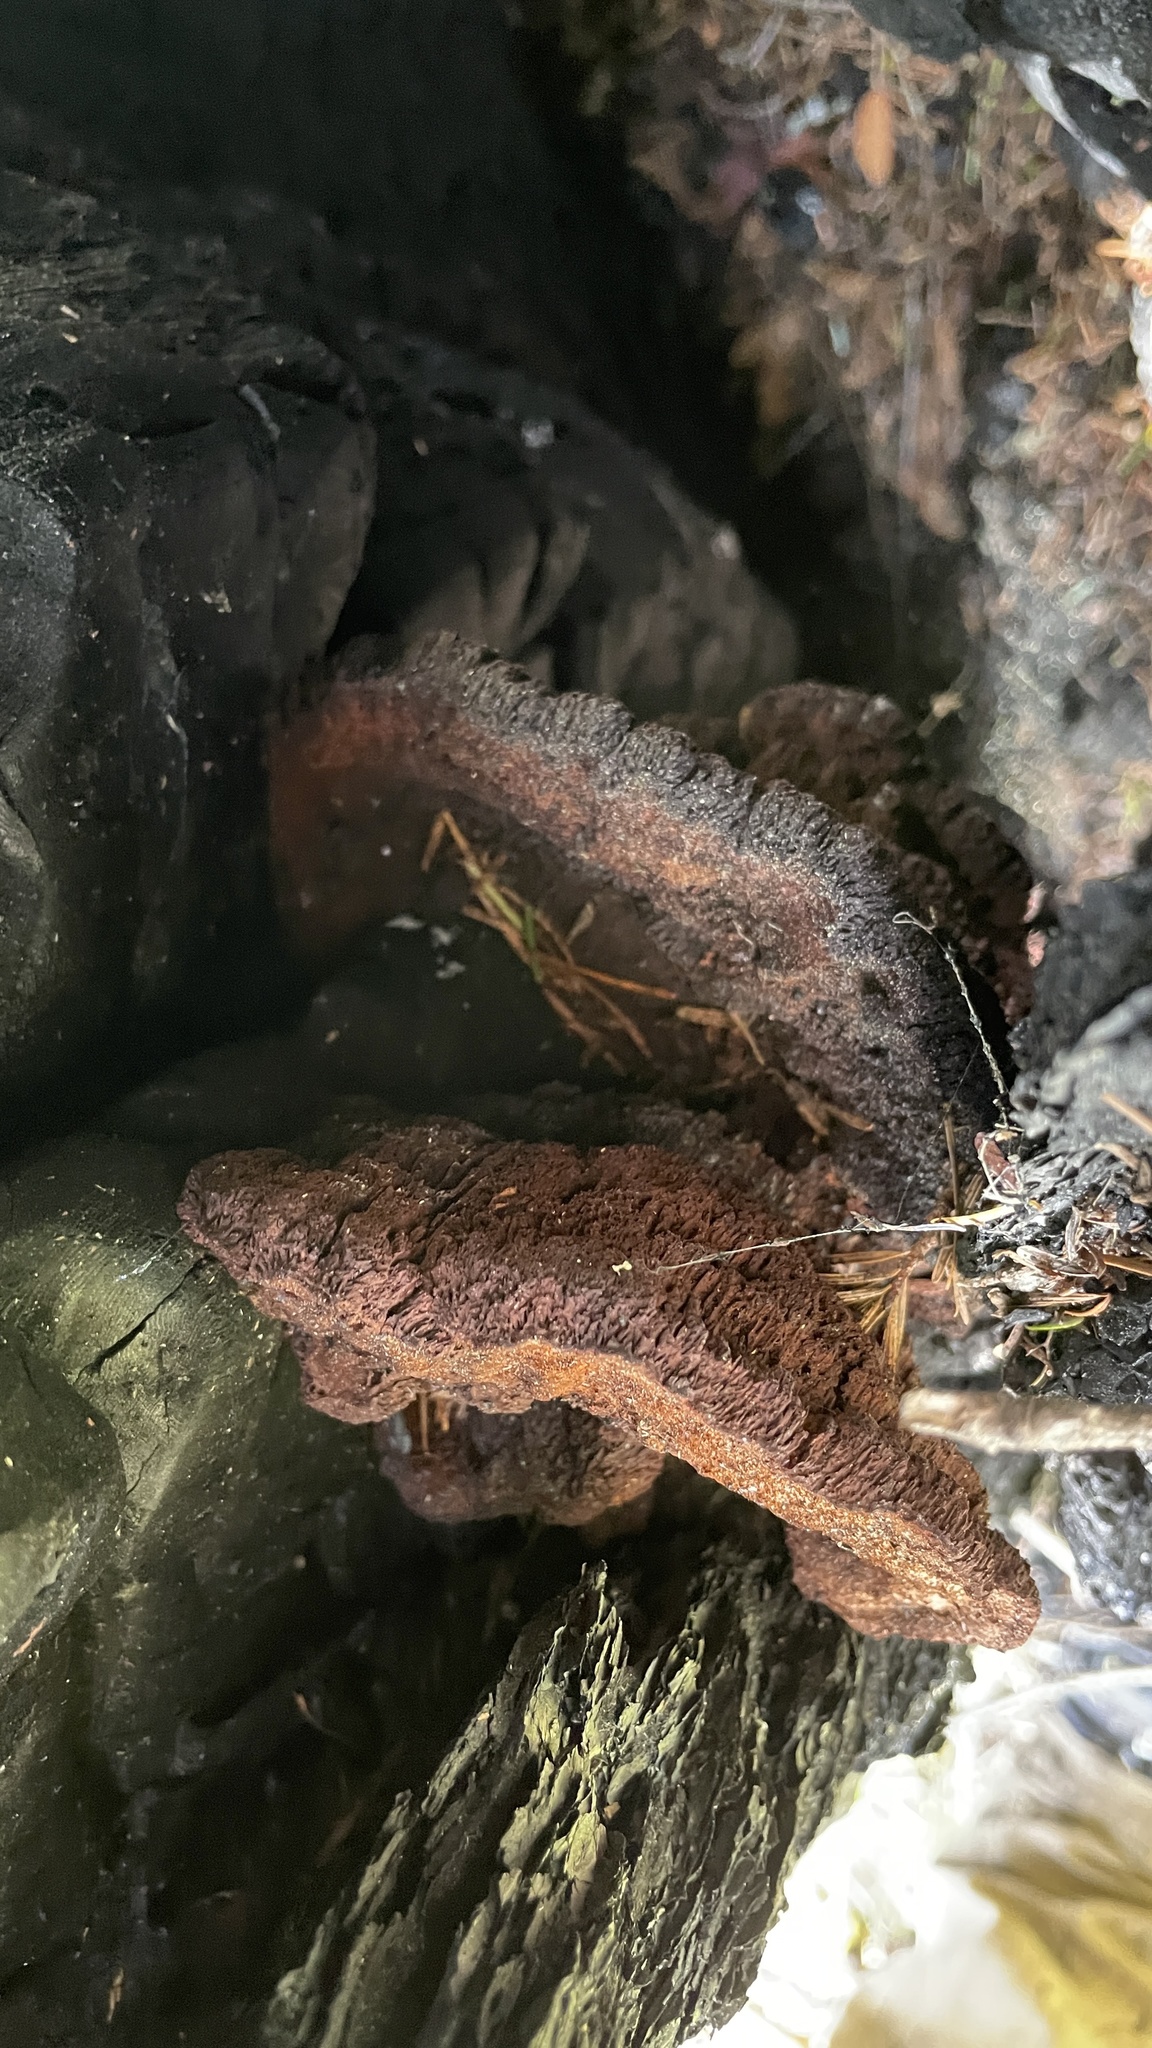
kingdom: Fungi
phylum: Basidiomycota
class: Agaricomycetes
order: Polyporales
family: Laetiporaceae
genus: Phaeolus
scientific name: Phaeolus schweinitzii
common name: Dyer's mazegill
